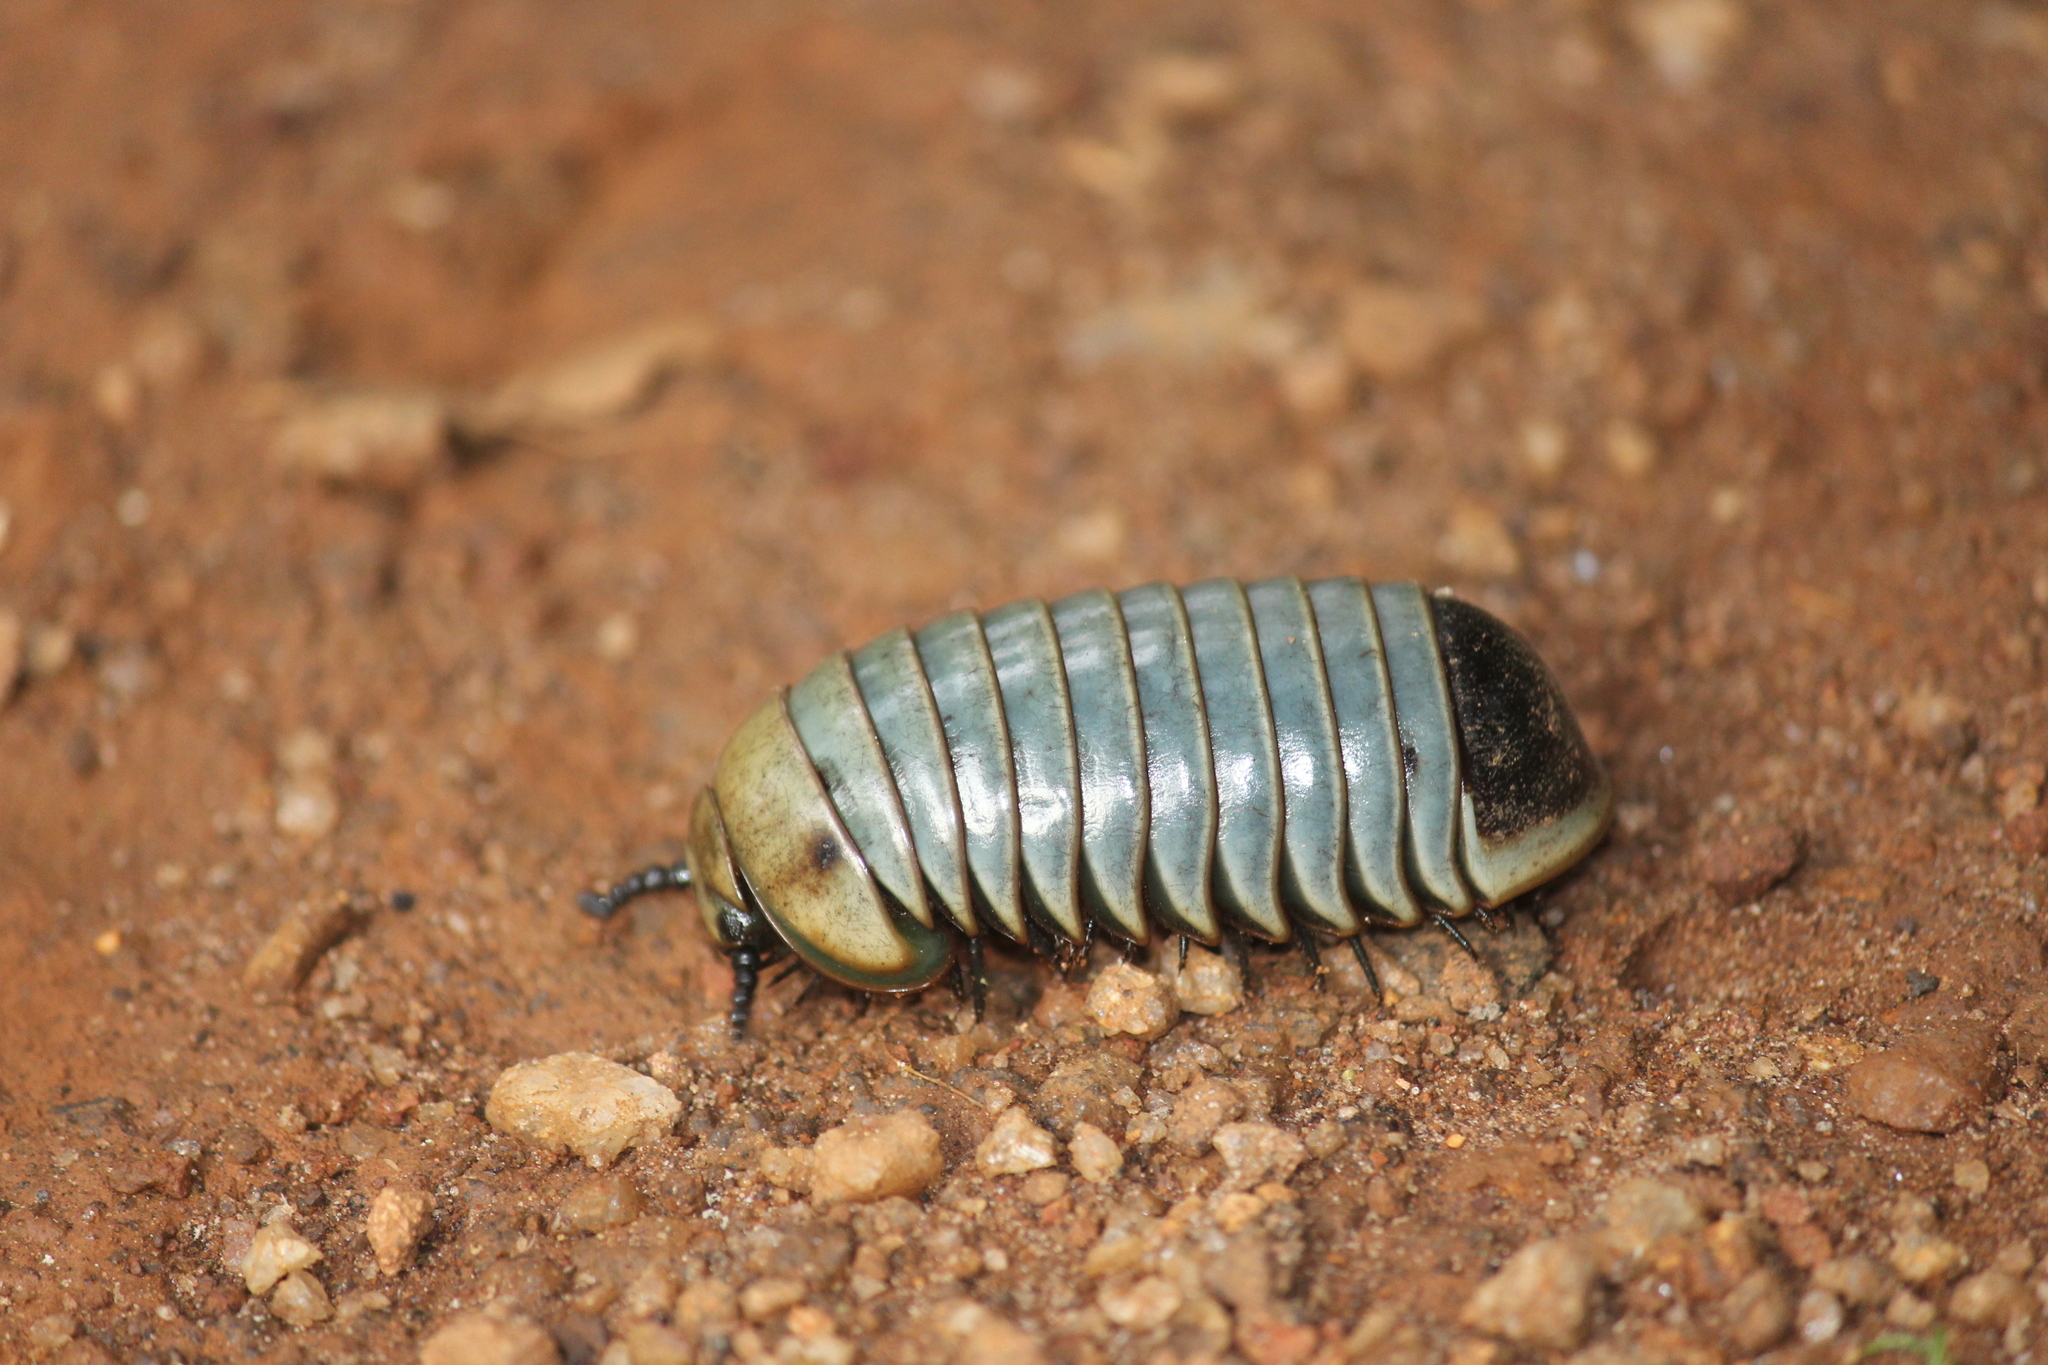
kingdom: Animalia
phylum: Arthropoda
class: Diplopoda
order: Sphaerotheriida
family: Arthrosphaeridae
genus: Arthrosphaera
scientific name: Arthrosphaera fumosa
